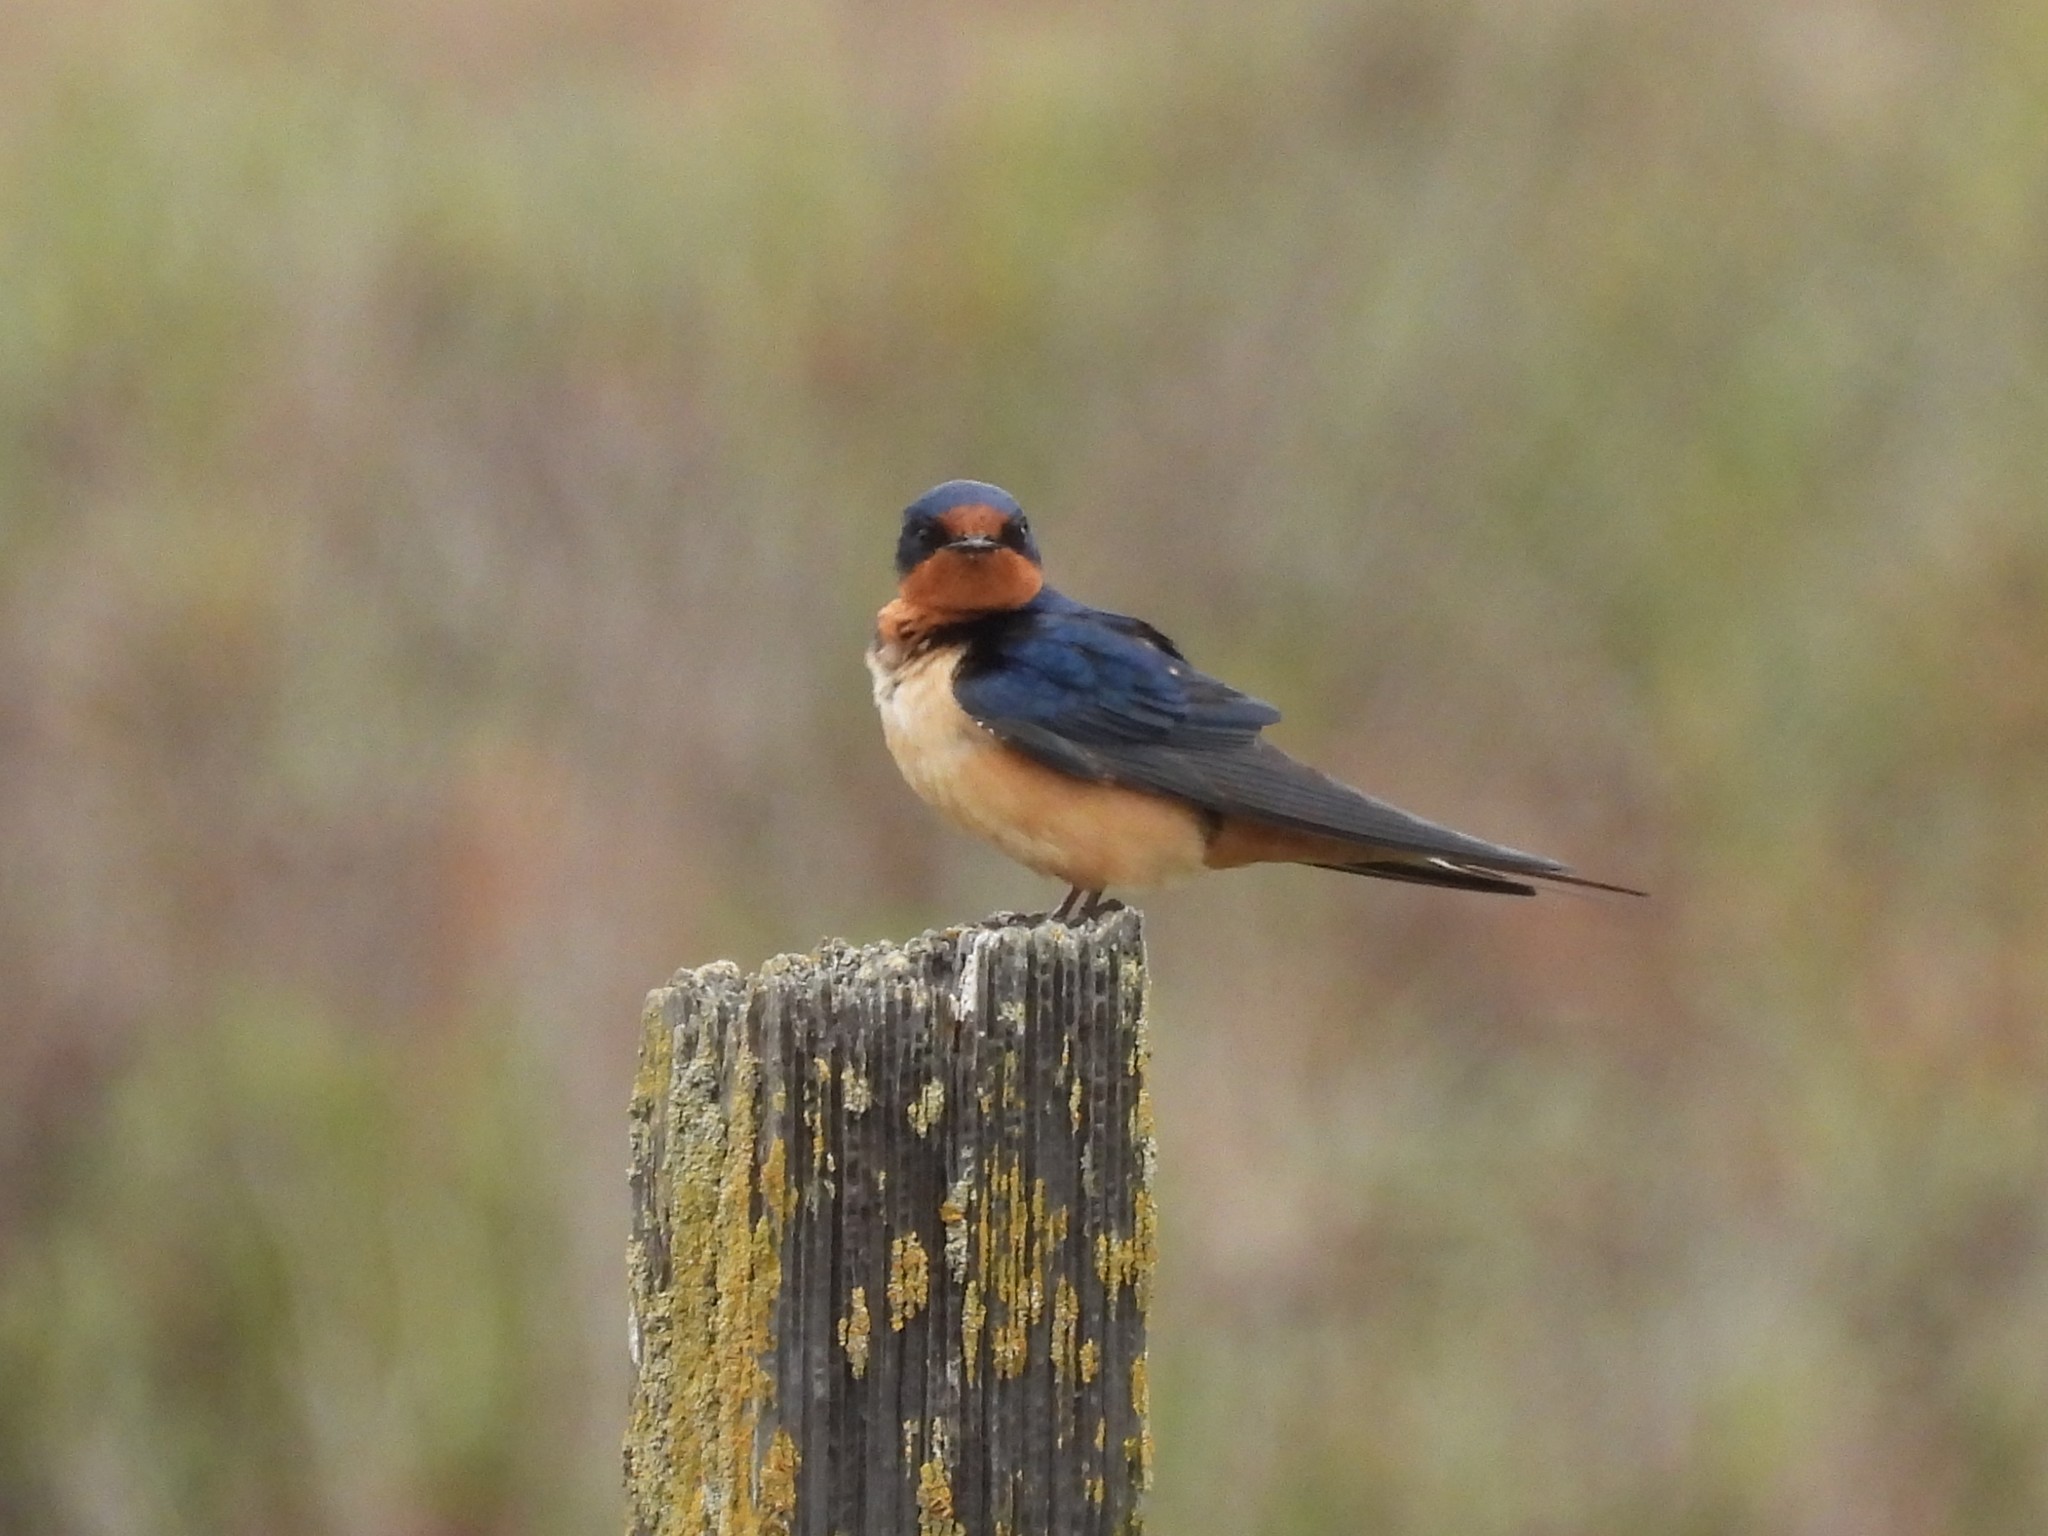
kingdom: Animalia
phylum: Chordata
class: Aves
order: Passeriformes
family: Hirundinidae
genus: Hirundo
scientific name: Hirundo rustica
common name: Barn swallow
